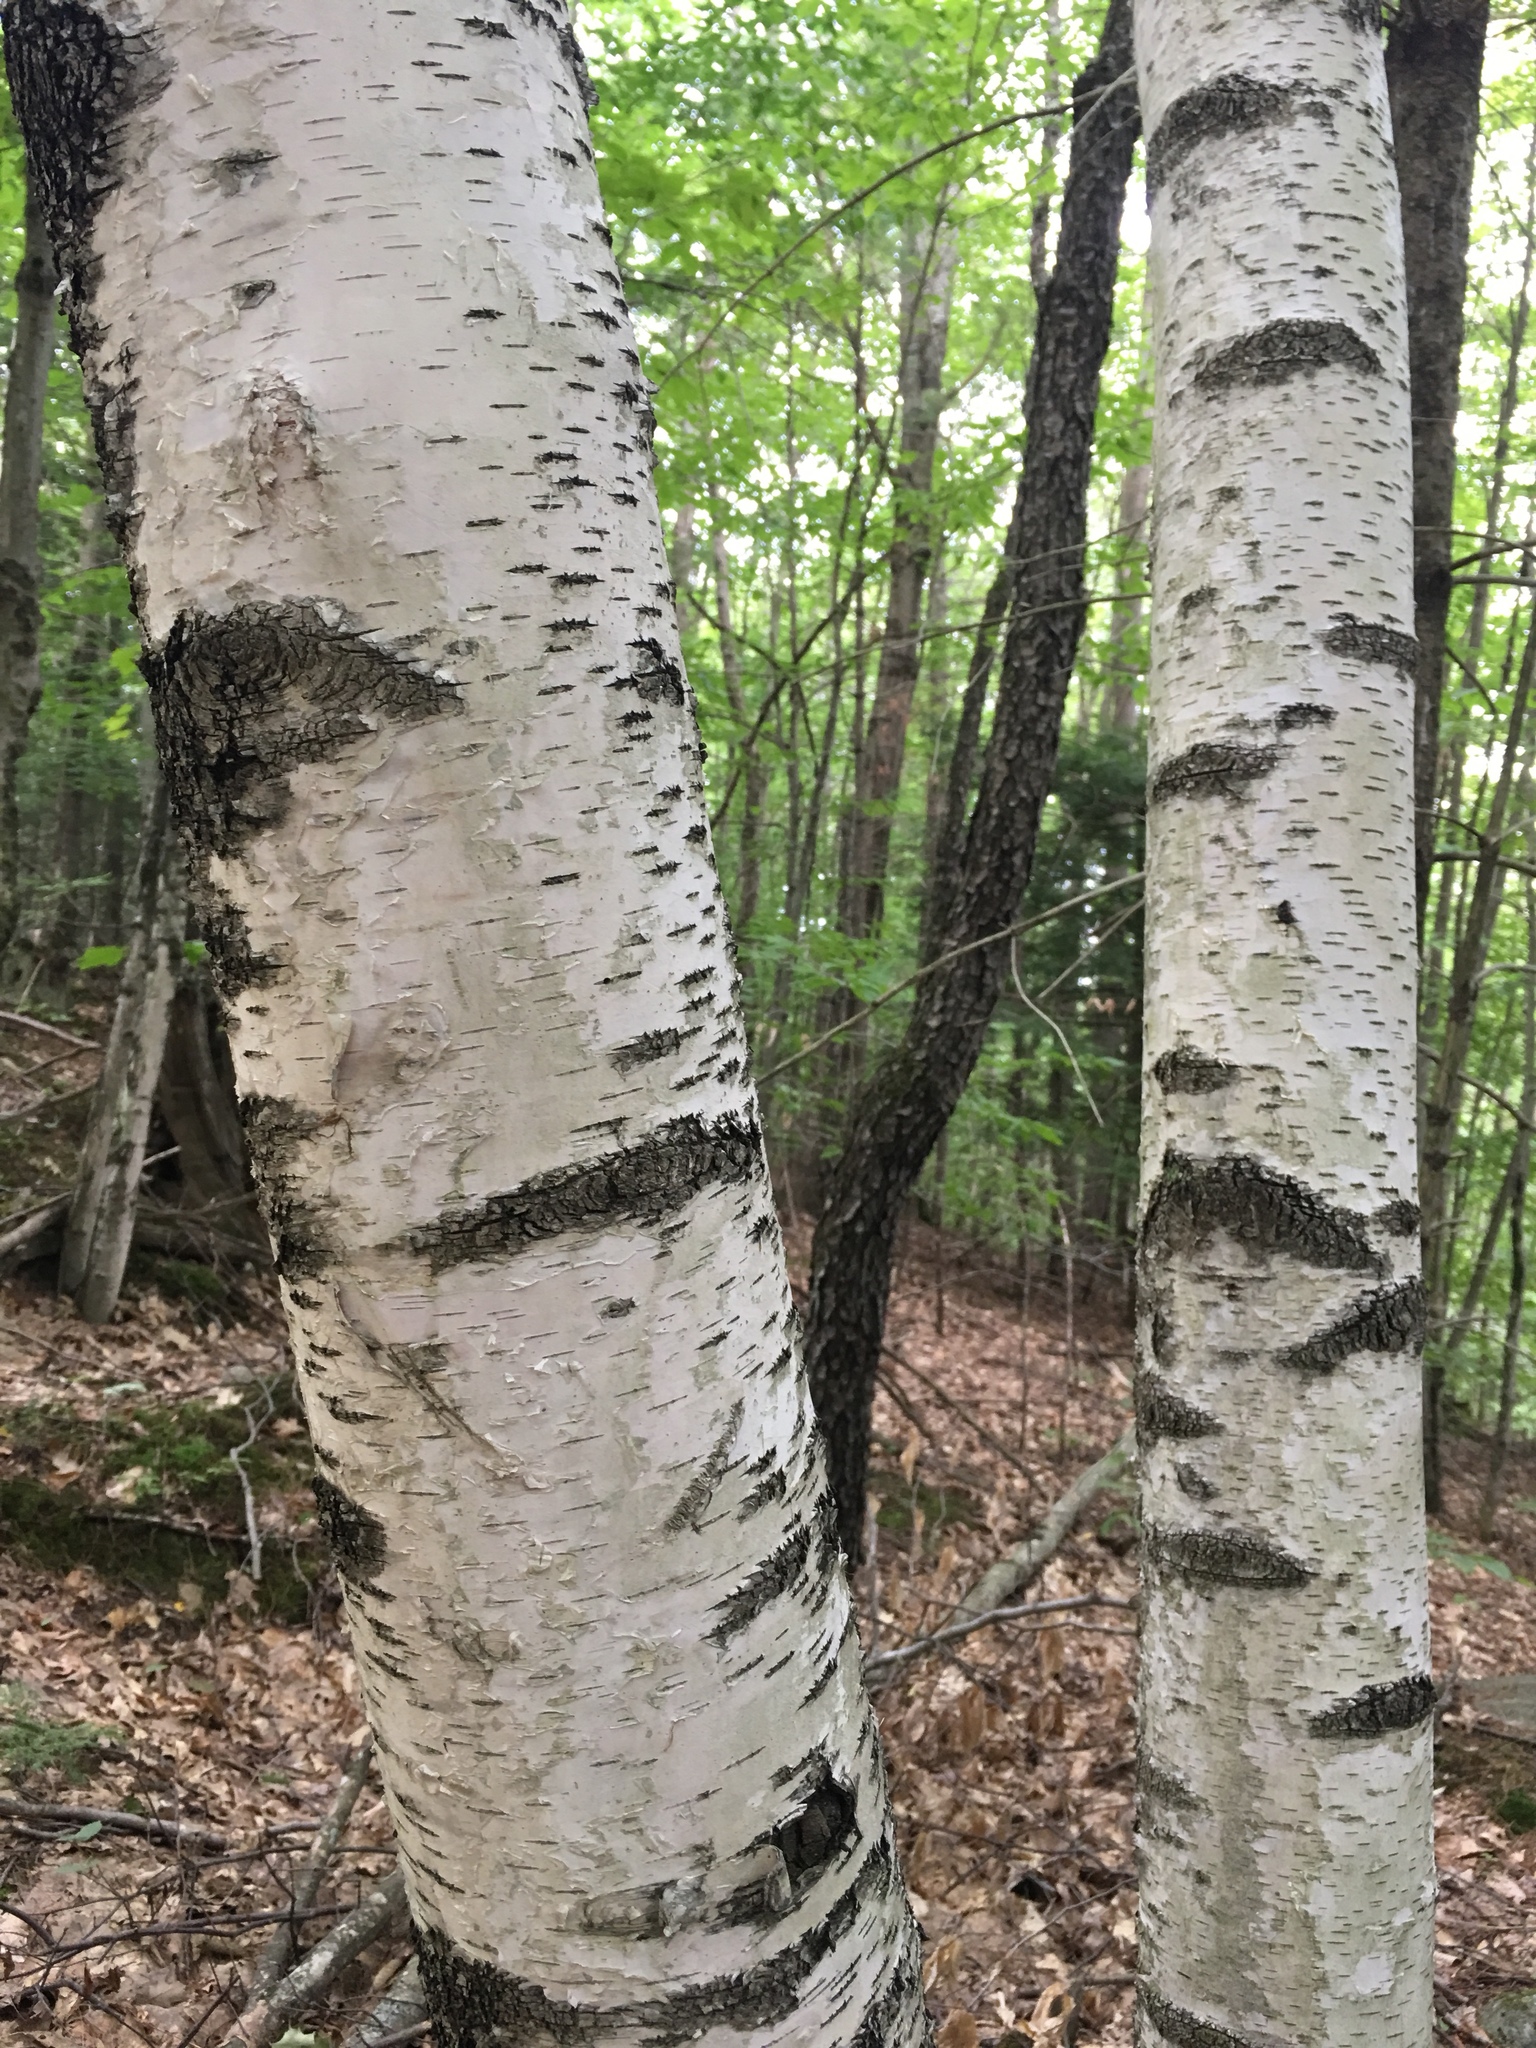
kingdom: Plantae
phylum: Tracheophyta
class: Magnoliopsida
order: Fagales
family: Betulaceae
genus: Betula
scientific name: Betula populifolia
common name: Fire birch
